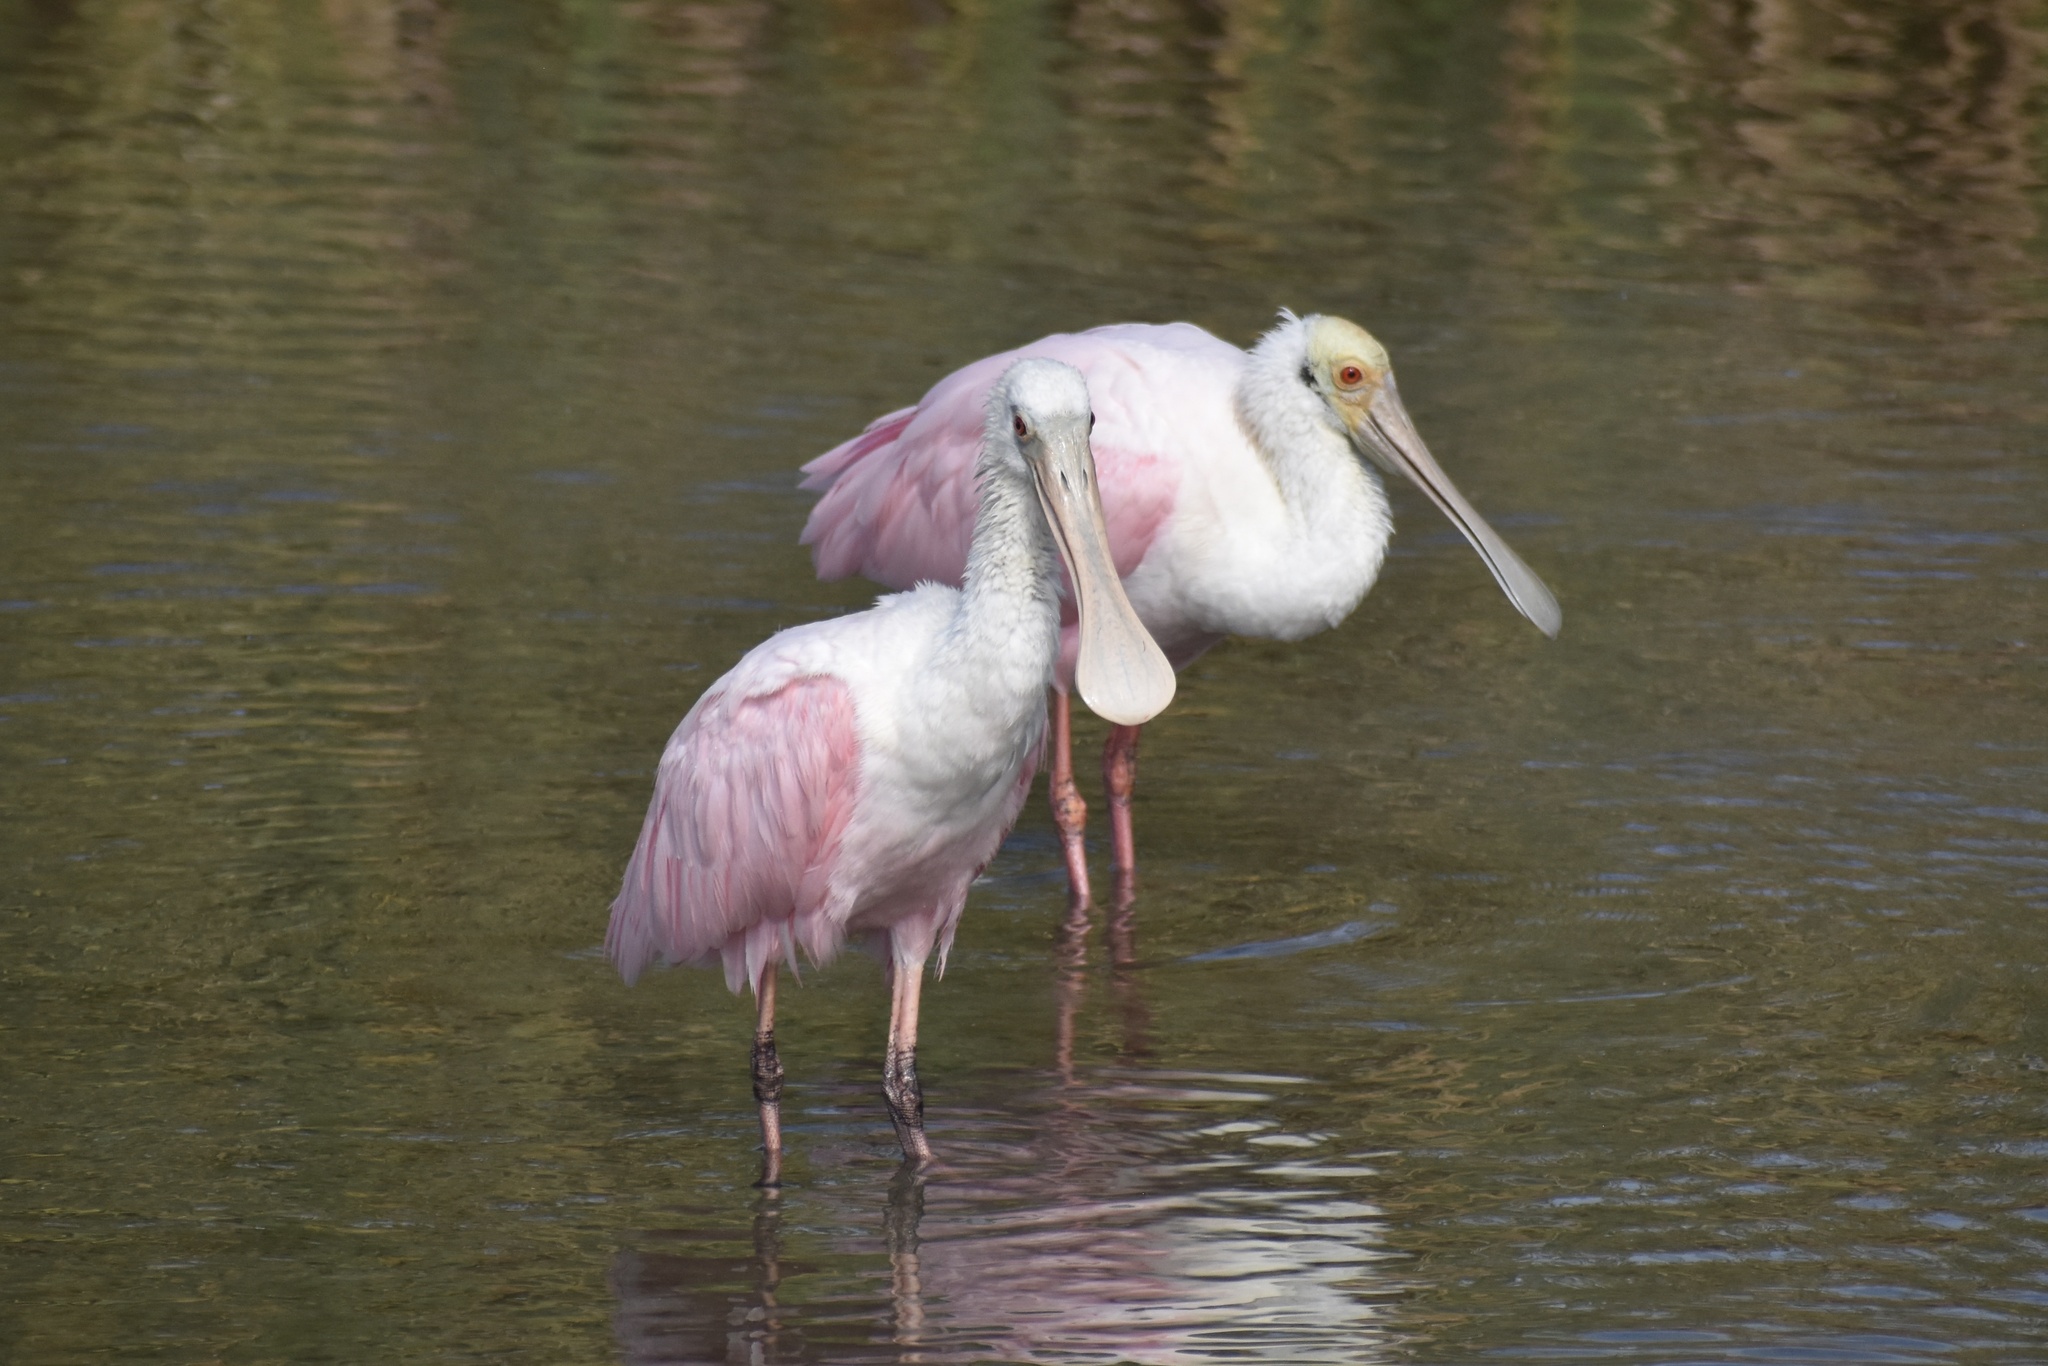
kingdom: Animalia
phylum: Chordata
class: Aves
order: Pelecaniformes
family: Threskiornithidae
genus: Platalea
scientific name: Platalea ajaja
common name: Roseate spoonbill
